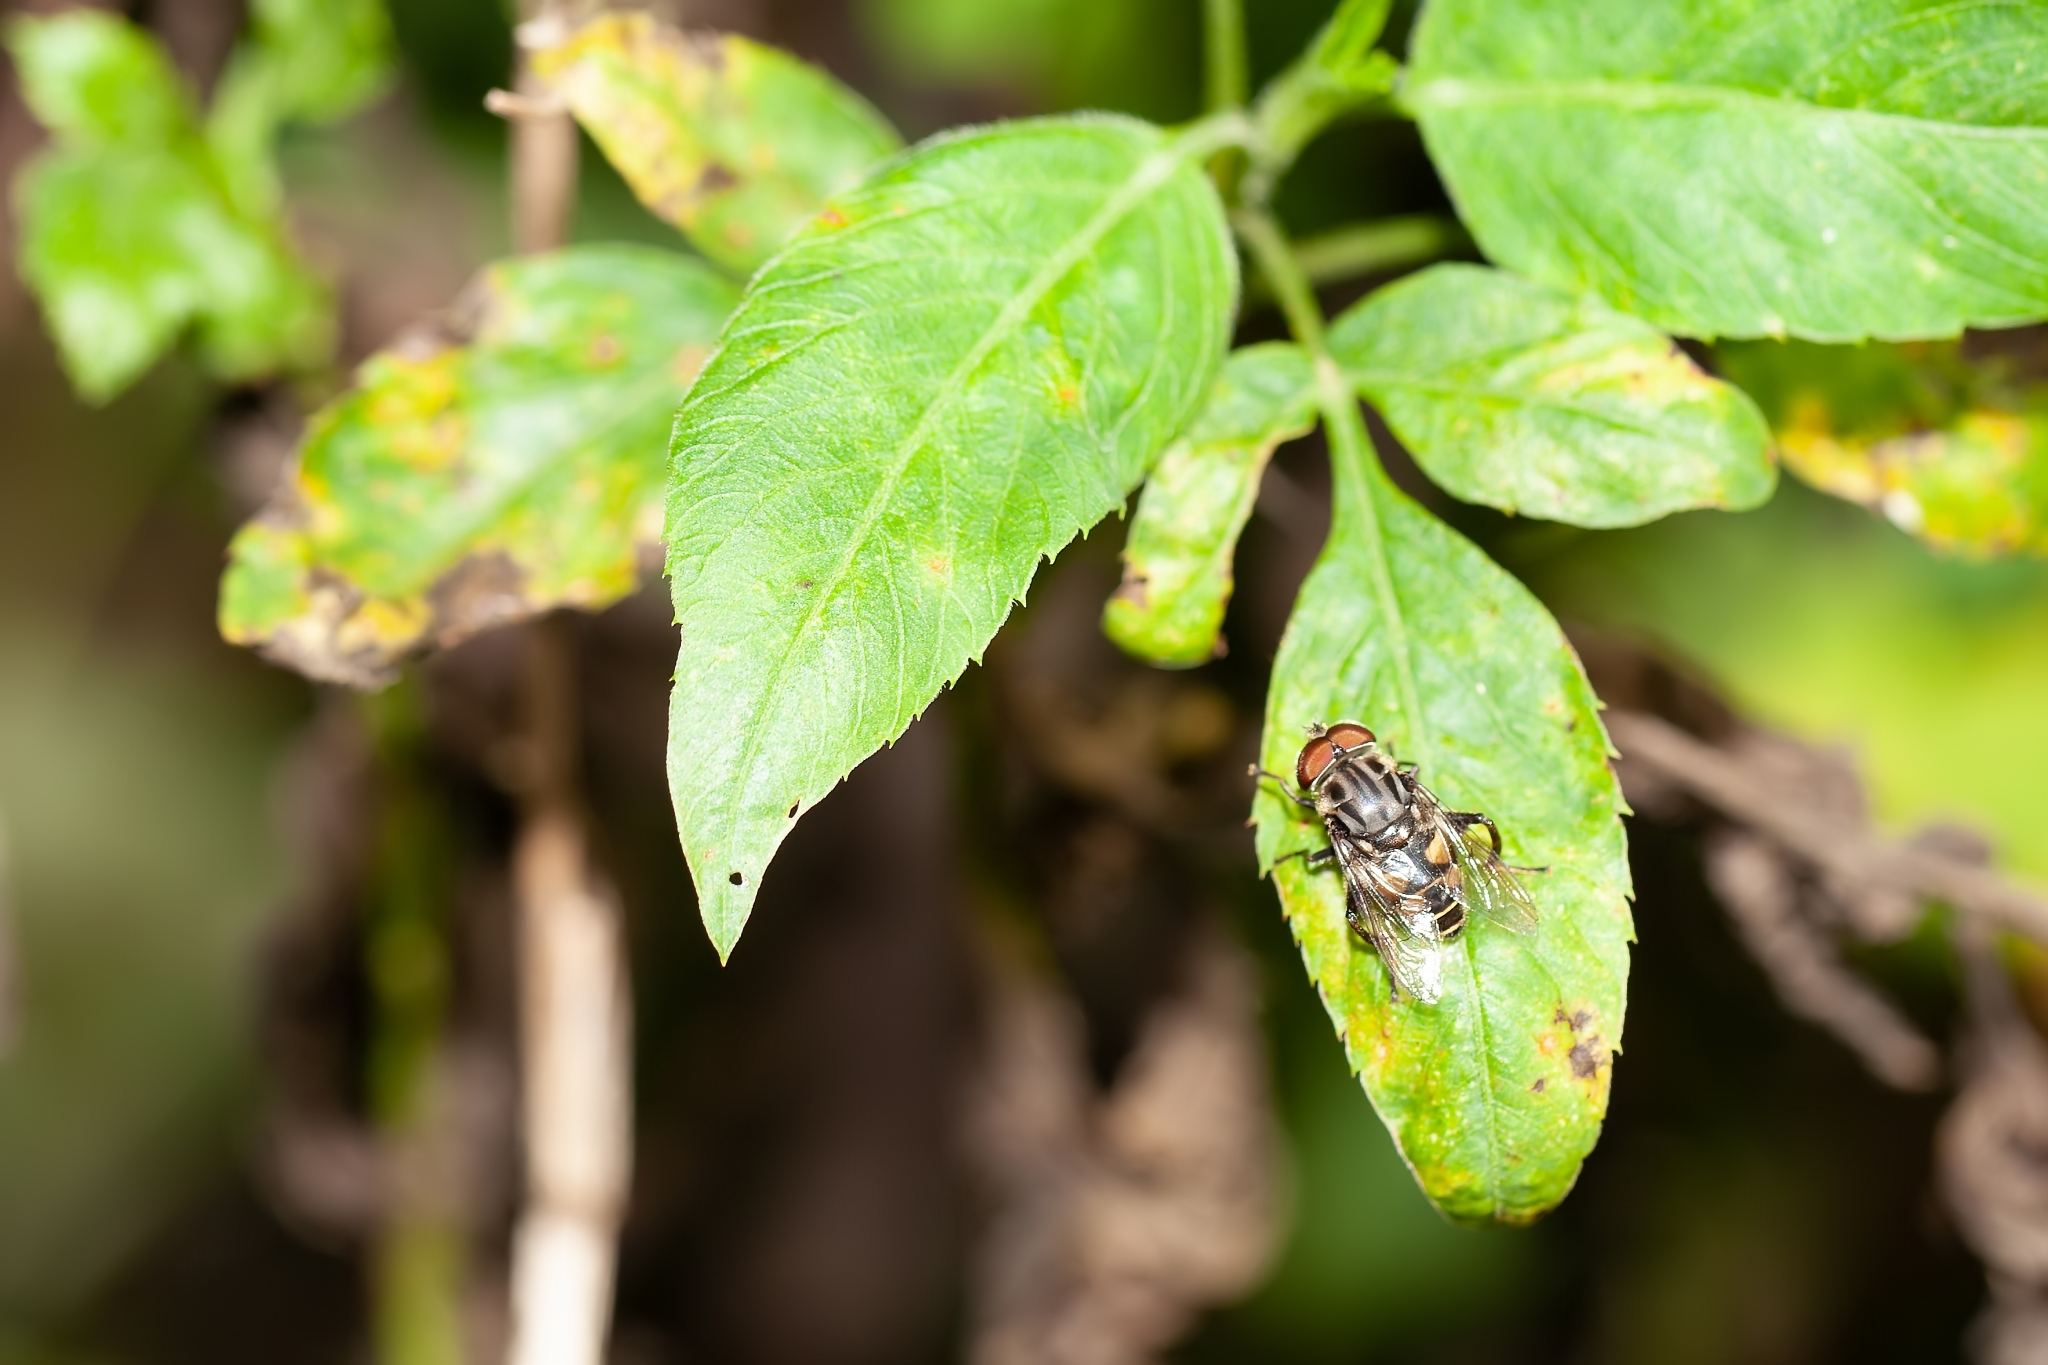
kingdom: Animalia
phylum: Arthropoda
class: Insecta
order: Diptera
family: Syrphidae
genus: Palpada
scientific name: Palpada furcata
